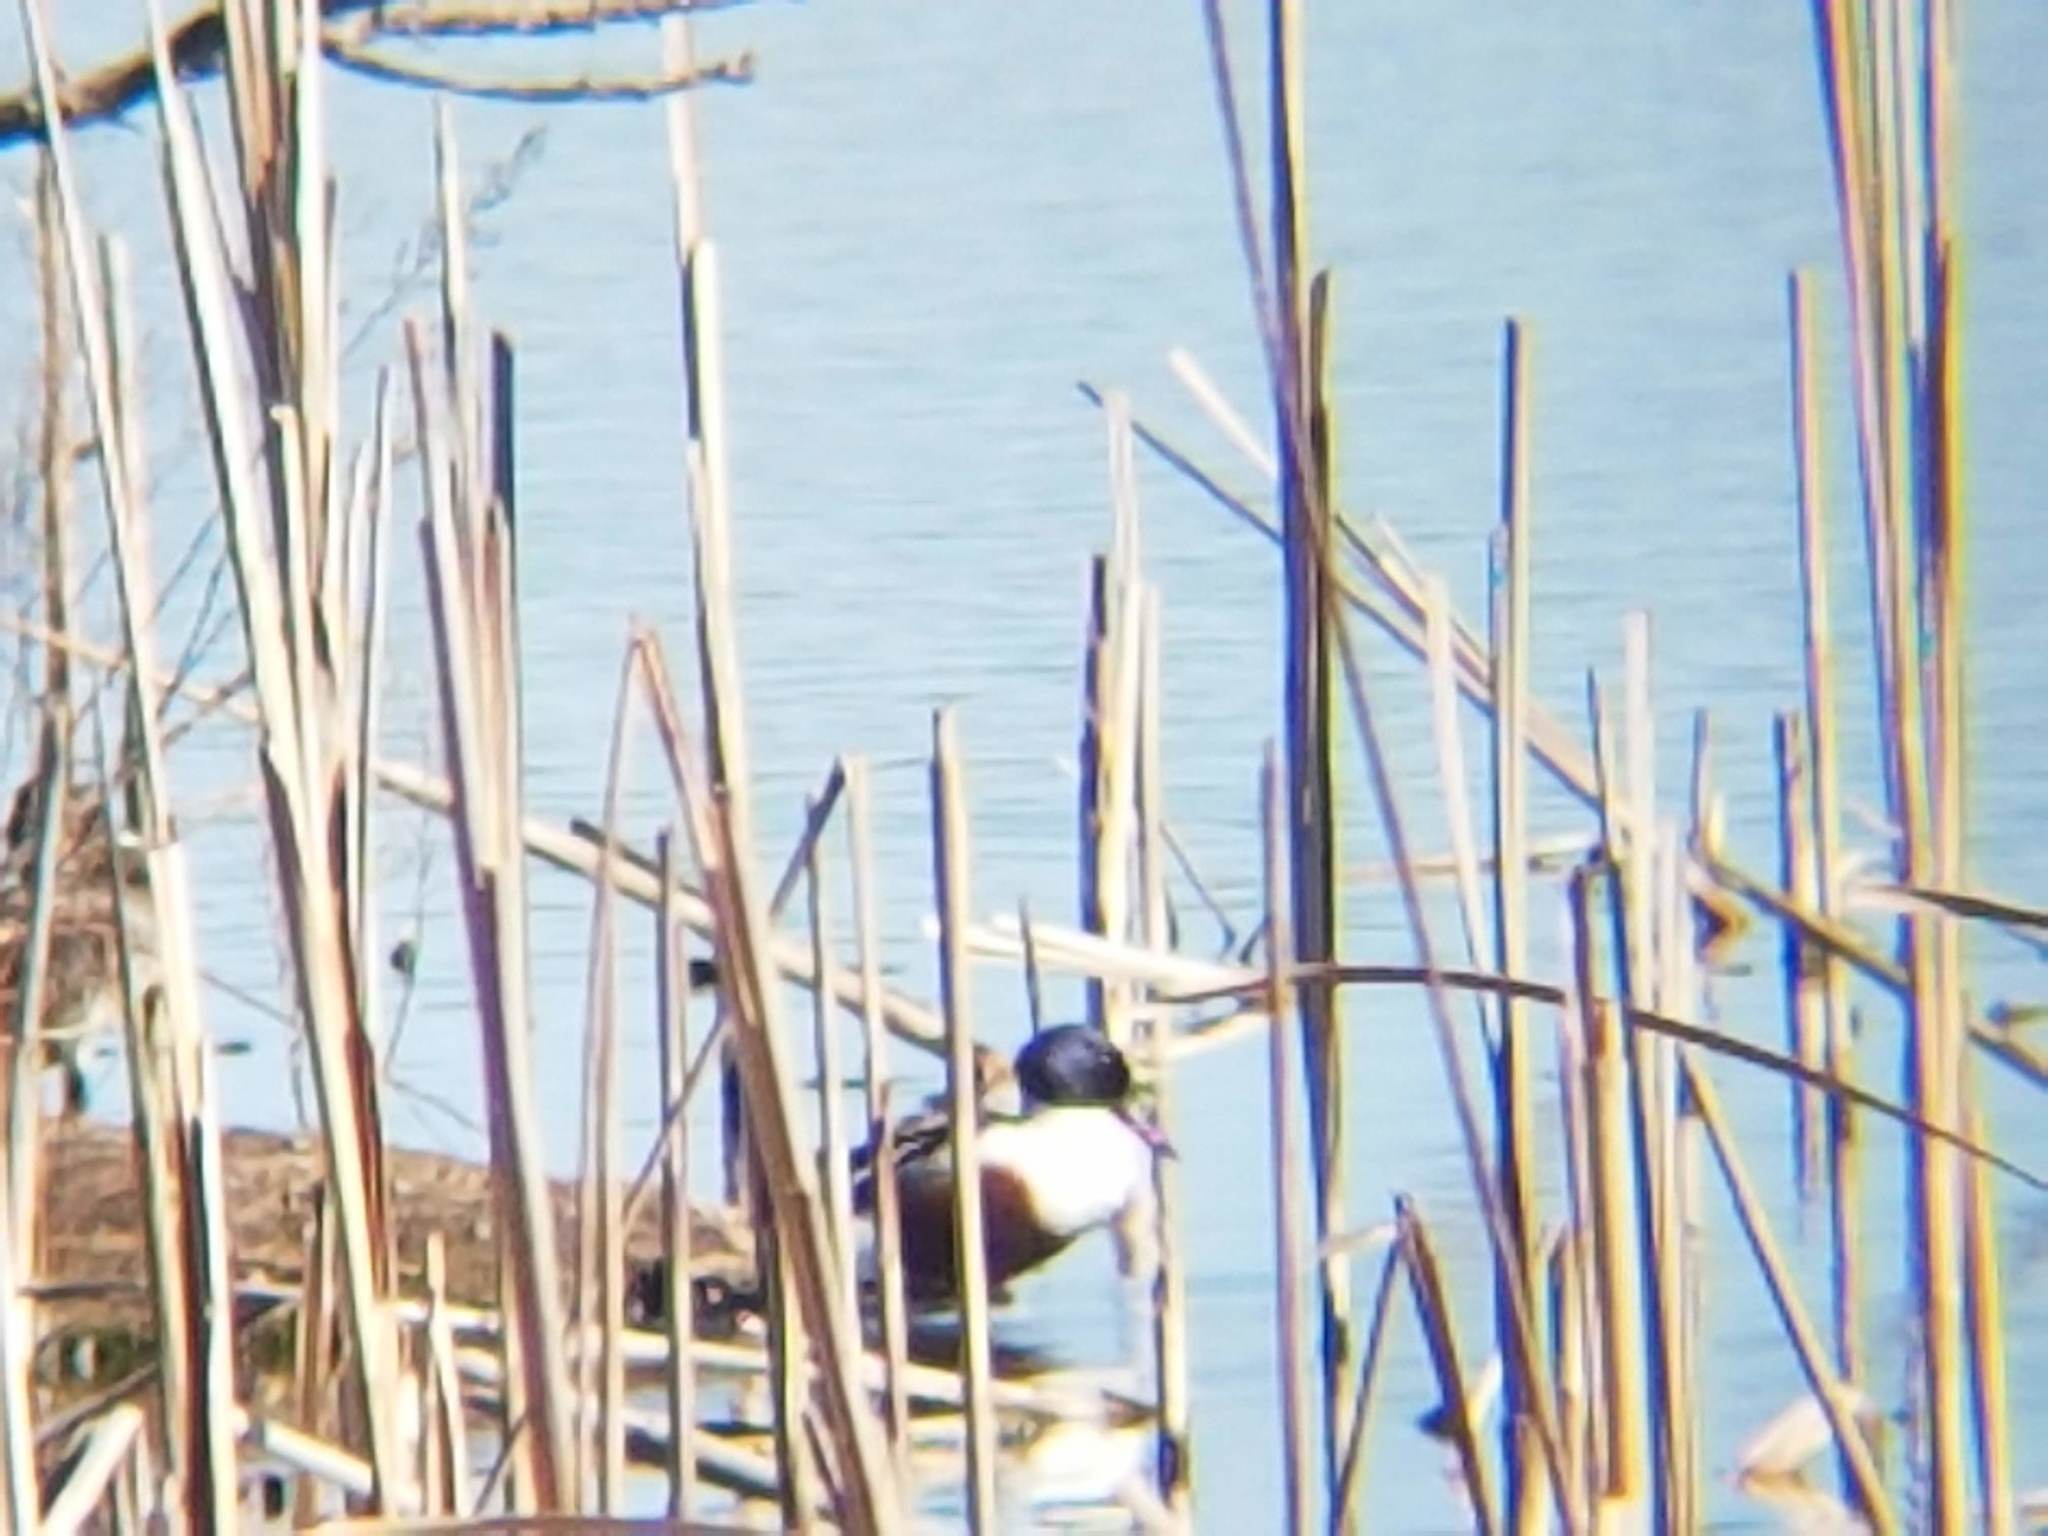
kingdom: Animalia
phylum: Chordata
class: Aves
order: Anseriformes
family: Anatidae
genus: Spatula
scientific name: Spatula clypeata
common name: Northern shoveler
